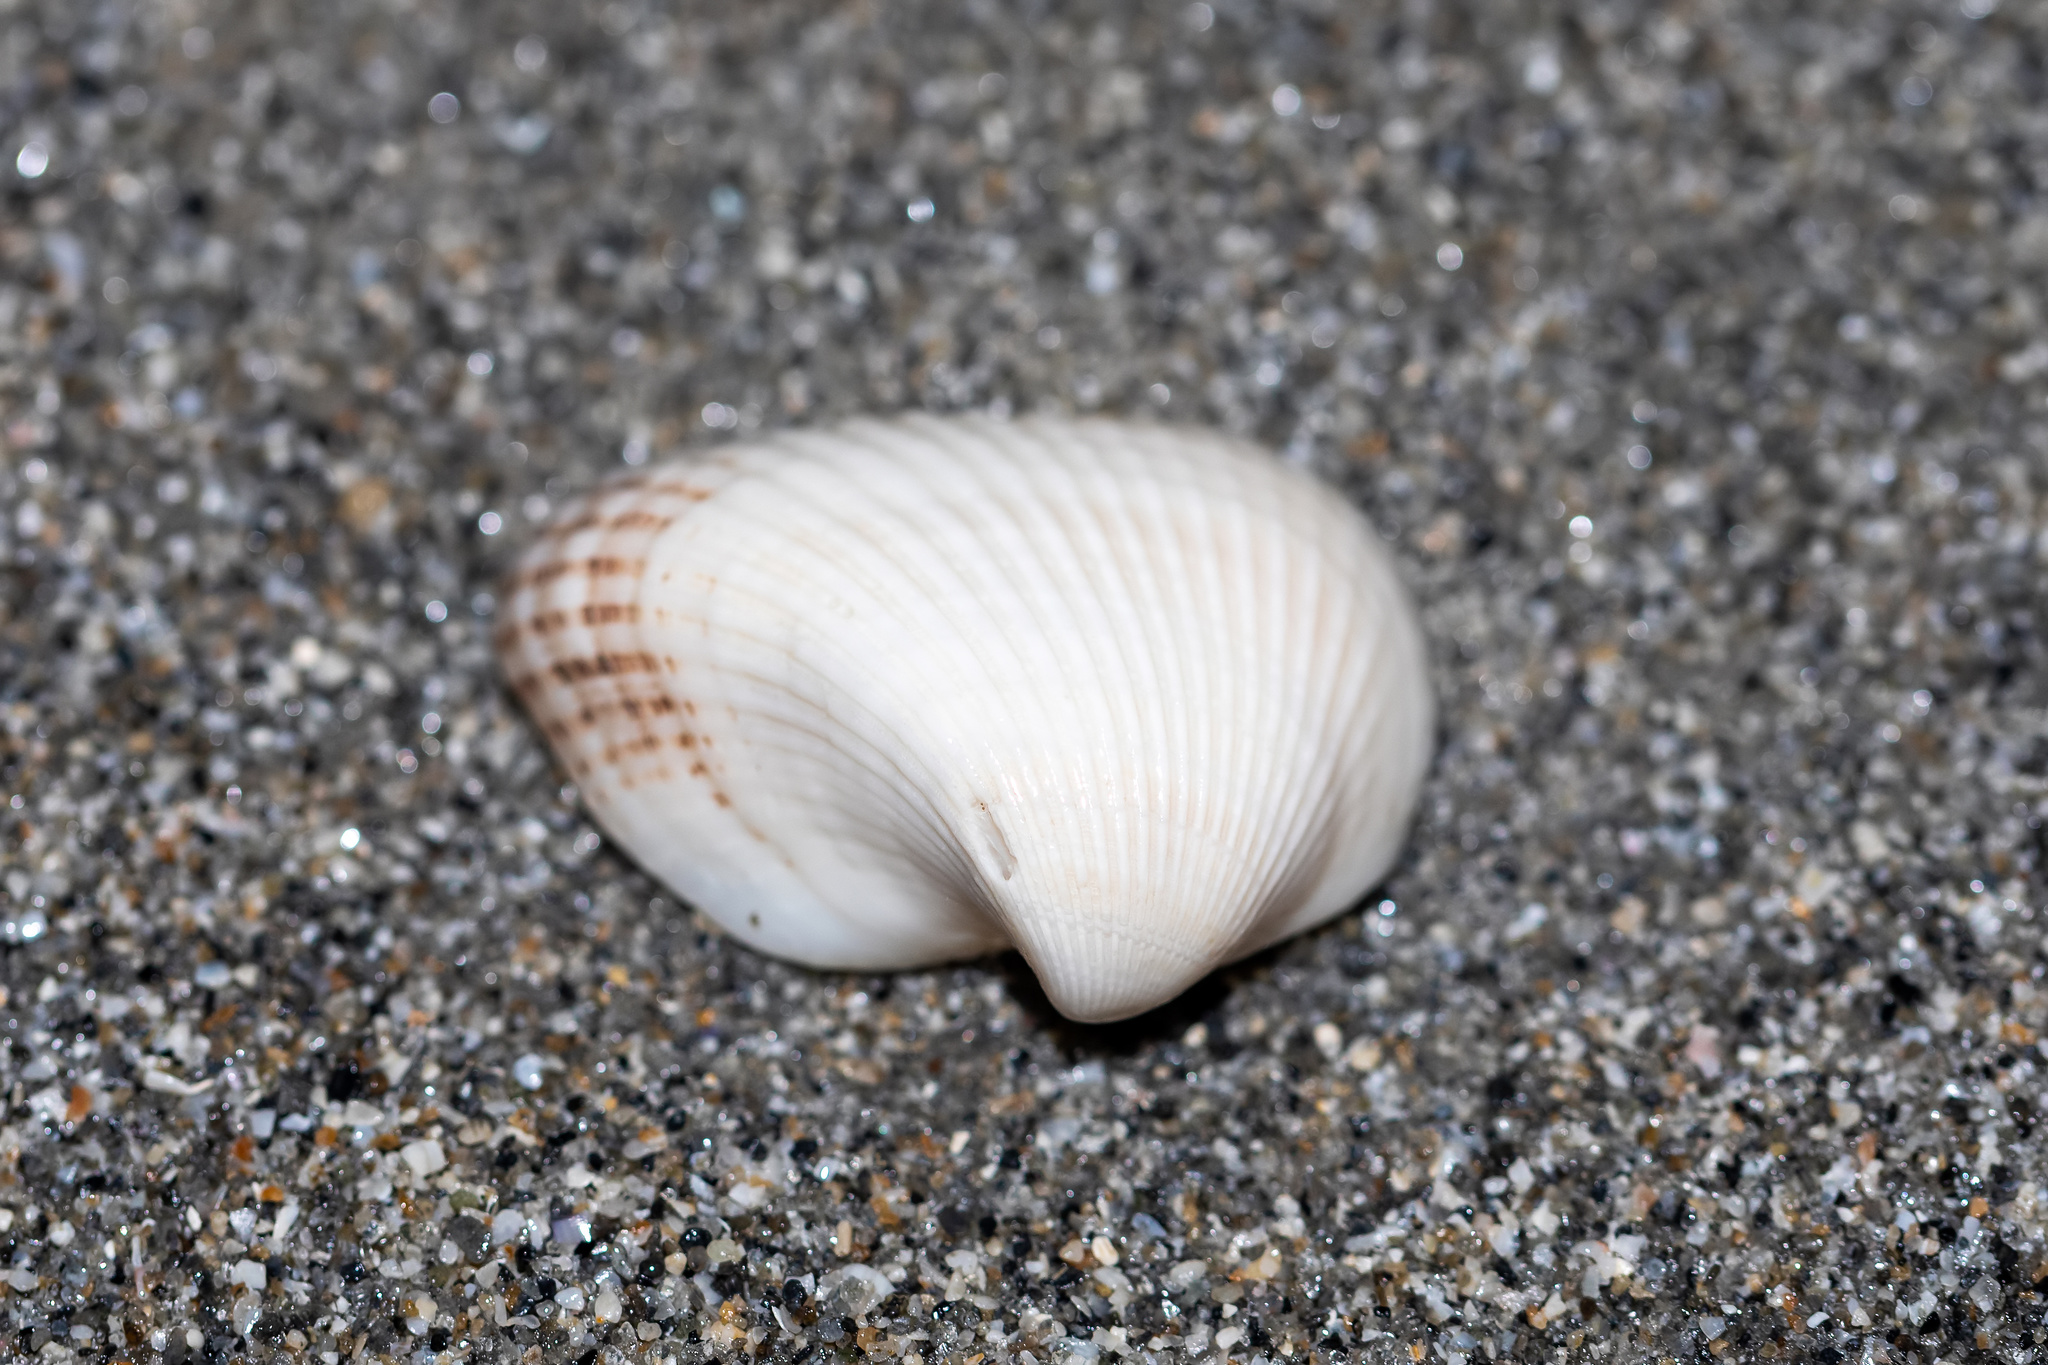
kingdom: Animalia
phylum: Mollusca
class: Bivalvia
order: Arcida
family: Noetiidae
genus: Noetia
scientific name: Noetia ponderosa
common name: Ponderous ark
